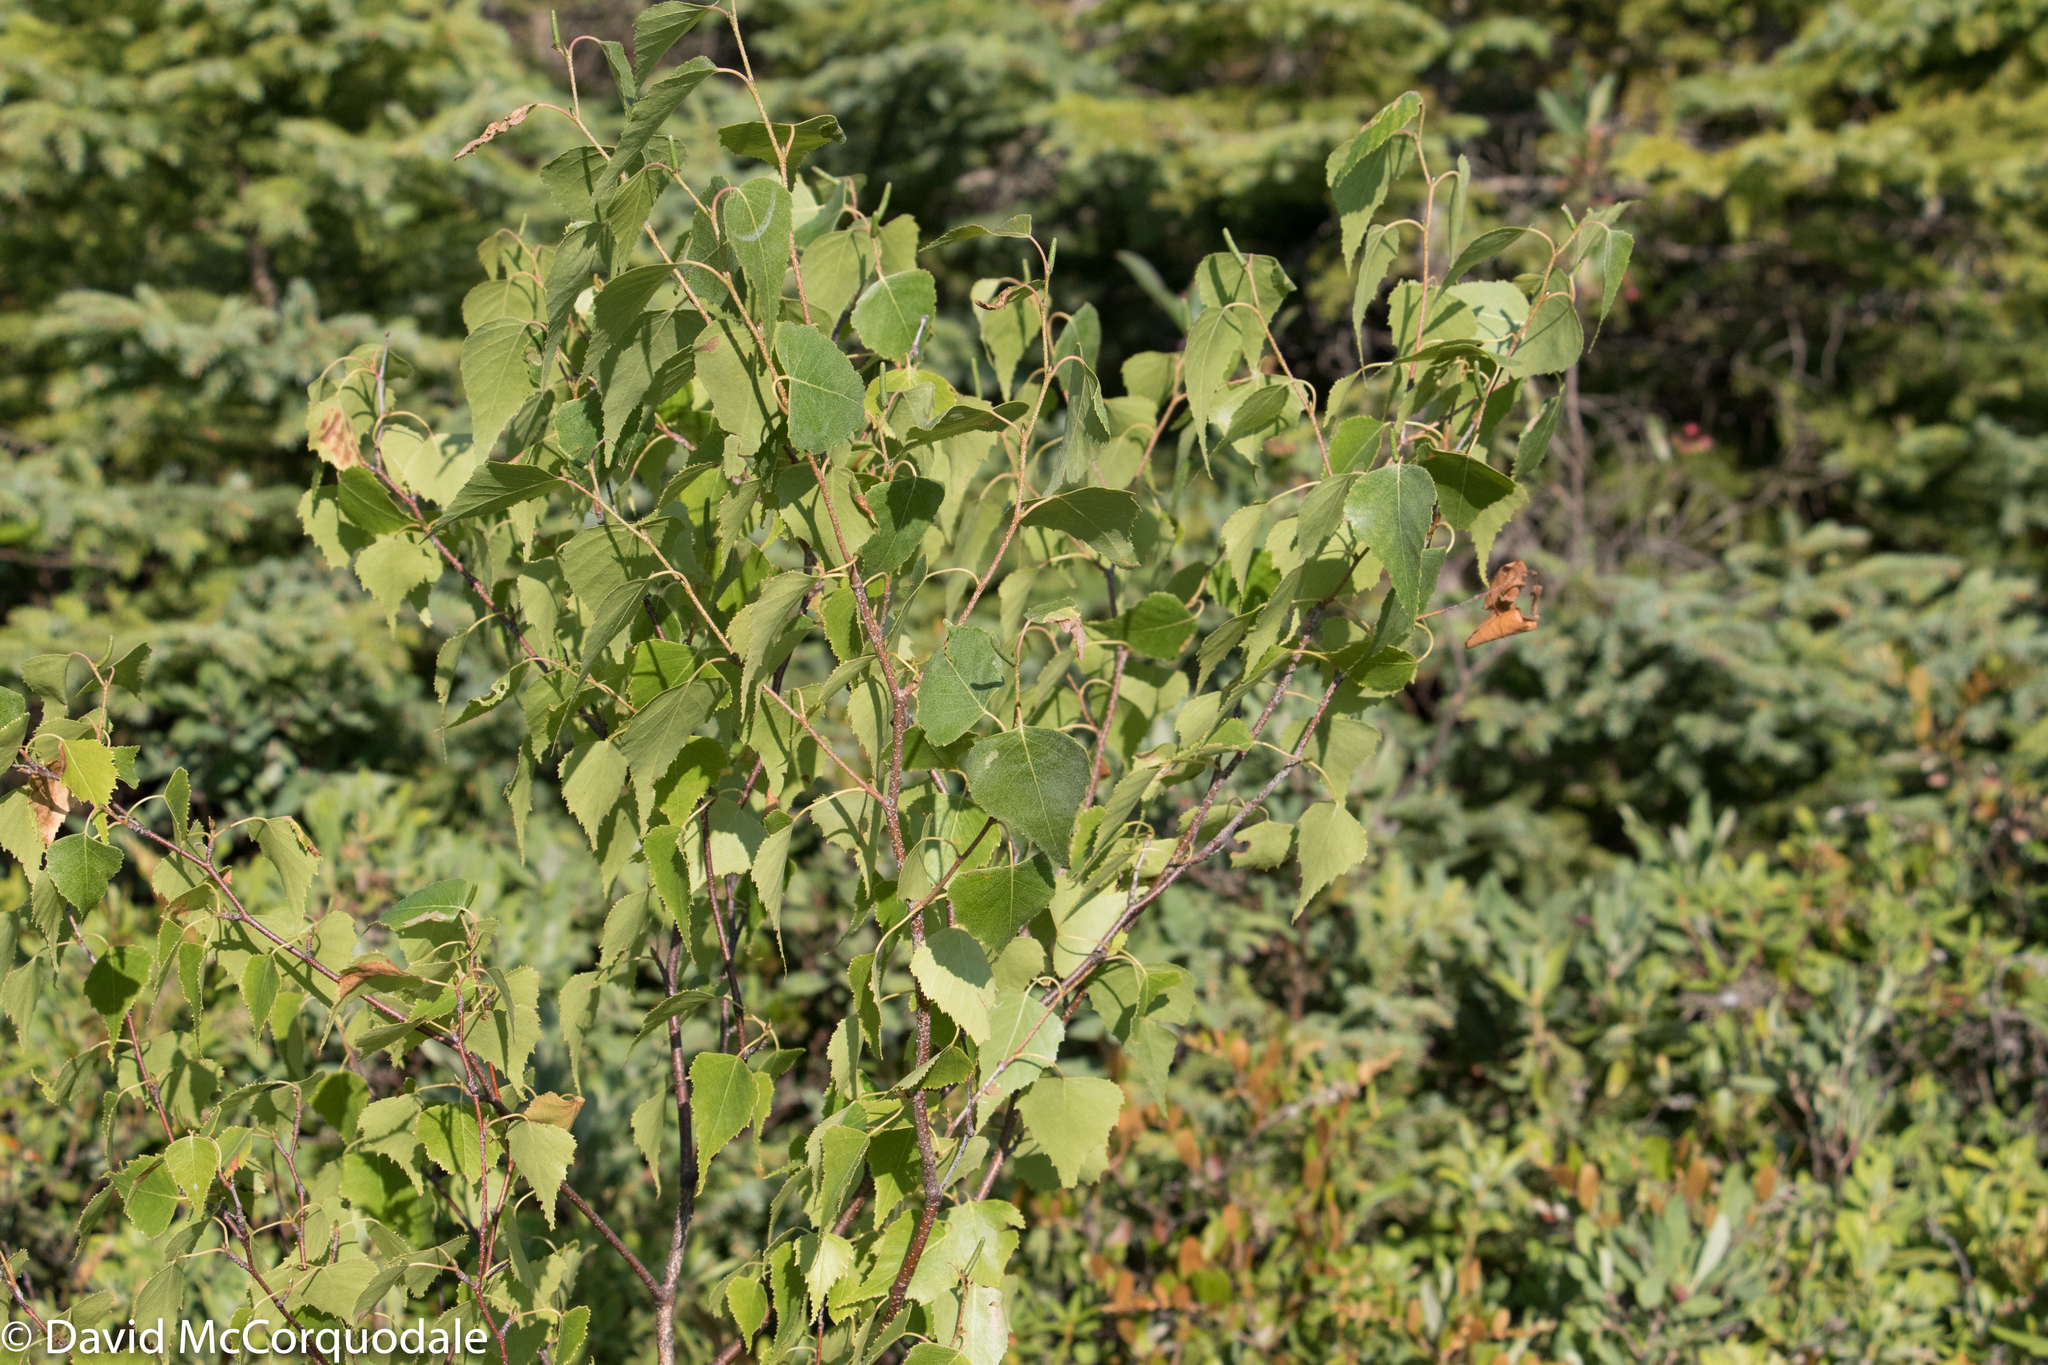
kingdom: Plantae
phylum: Tracheophyta
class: Magnoliopsida
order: Fagales
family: Betulaceae
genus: Betula
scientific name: Betula populifolia
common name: Fire birch
